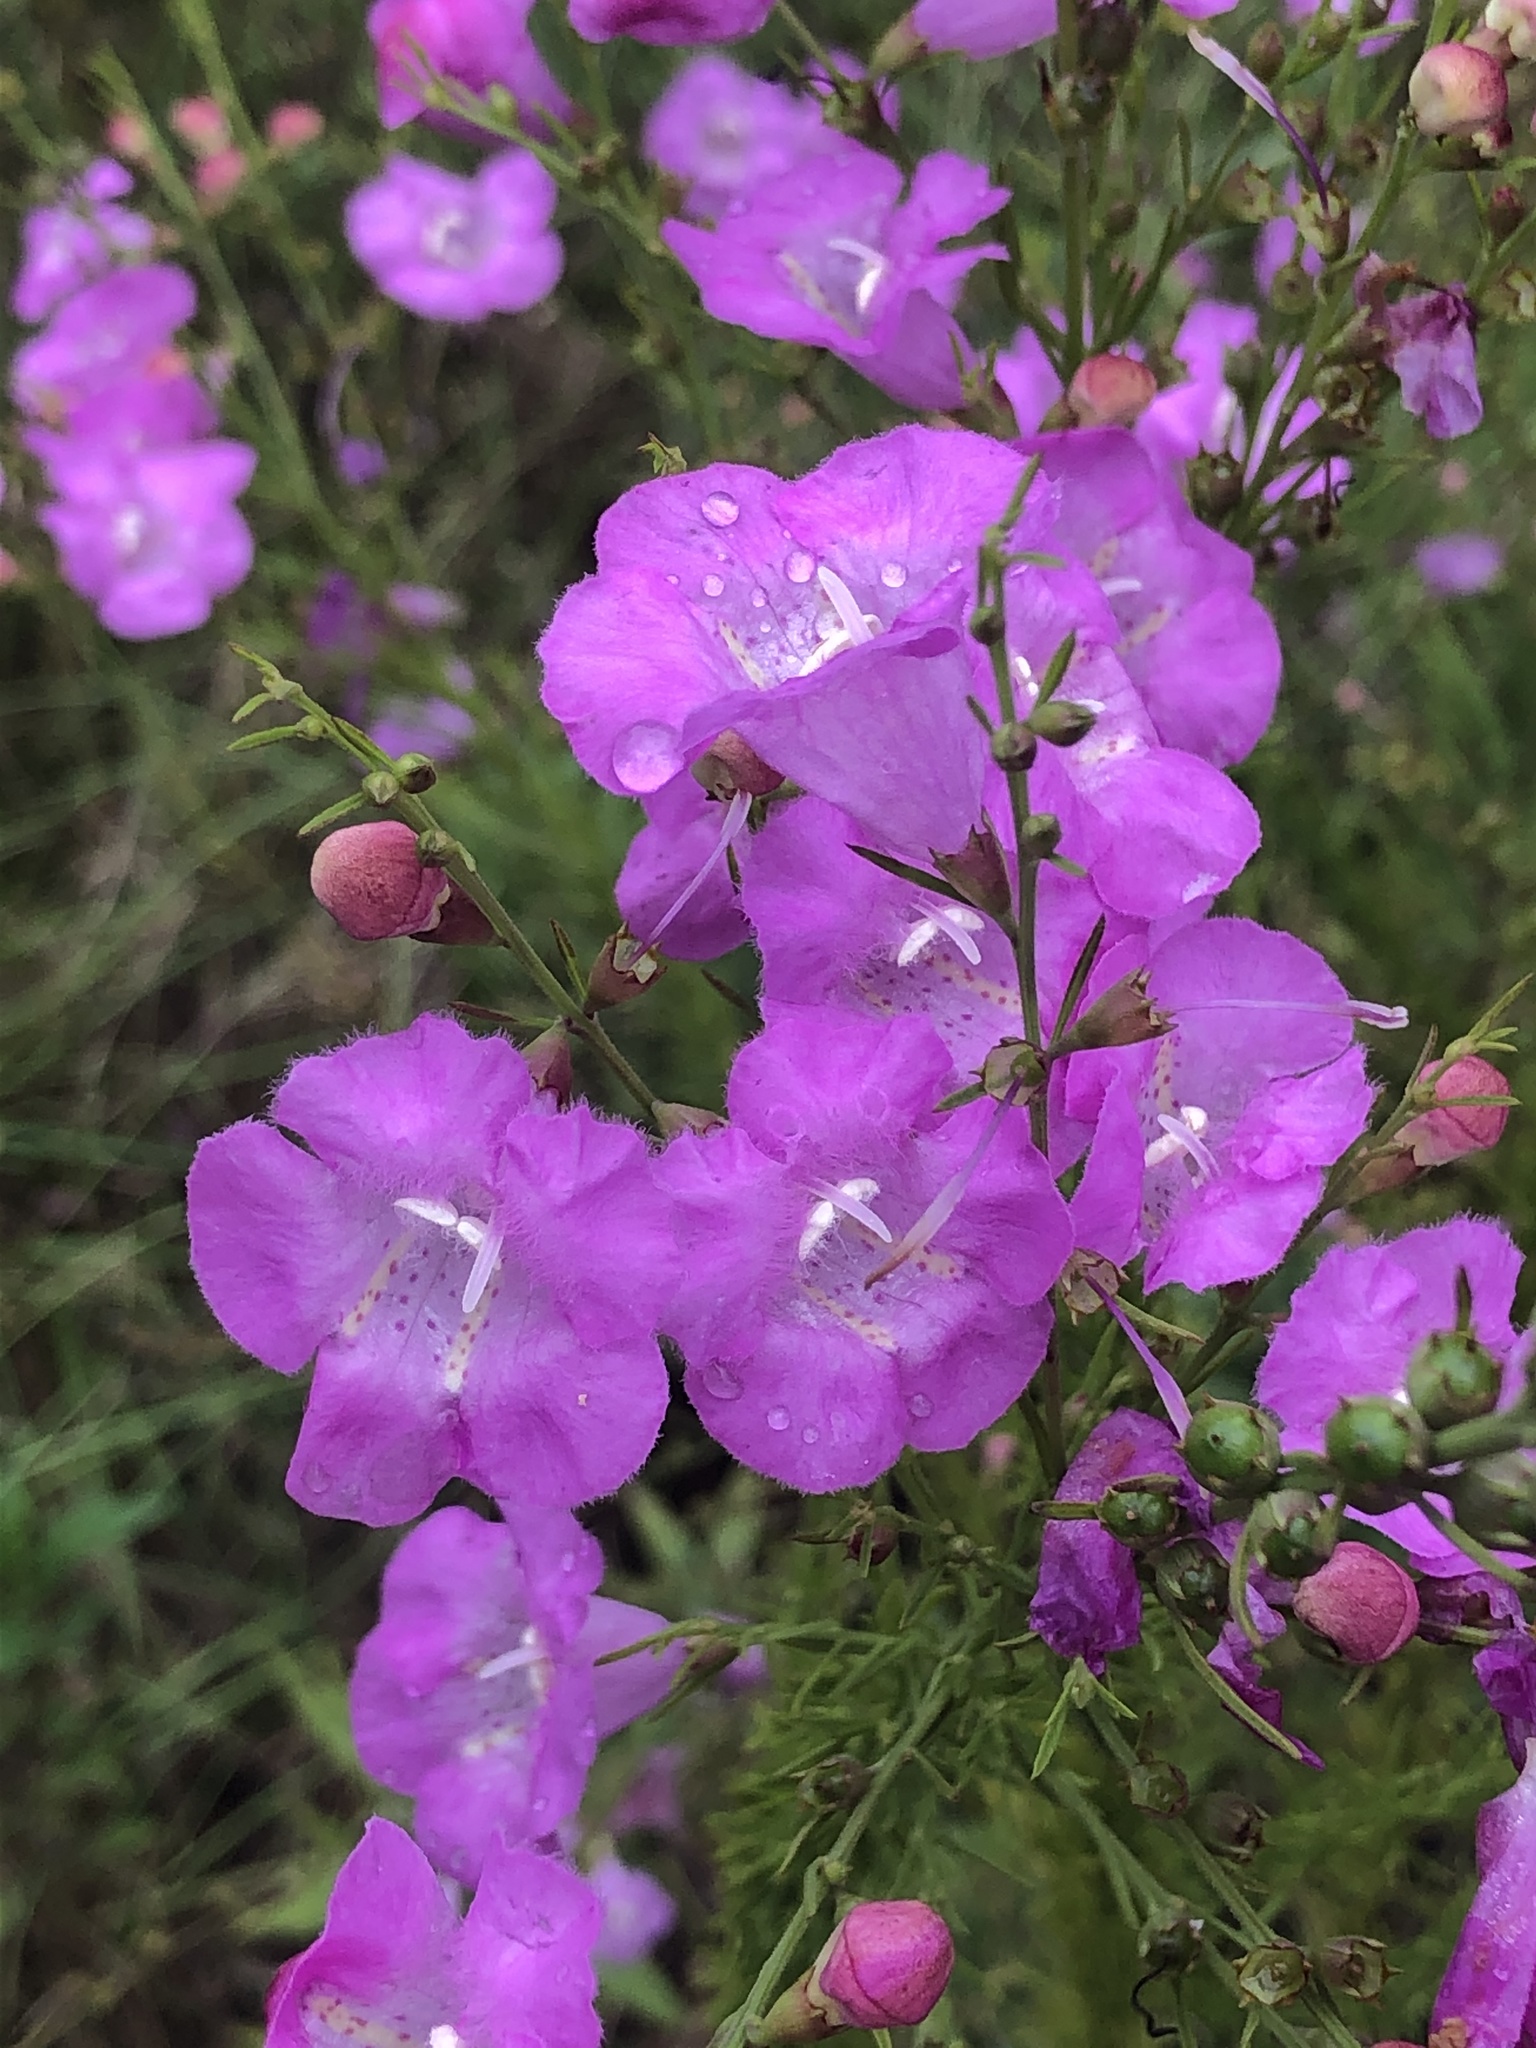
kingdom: Plantae
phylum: Tracheophyta
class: Magnoliopsida
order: Lamiales
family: Orobanchaceae
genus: Agalinis
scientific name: Agalinis fasciculata
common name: Beach false foxglove
